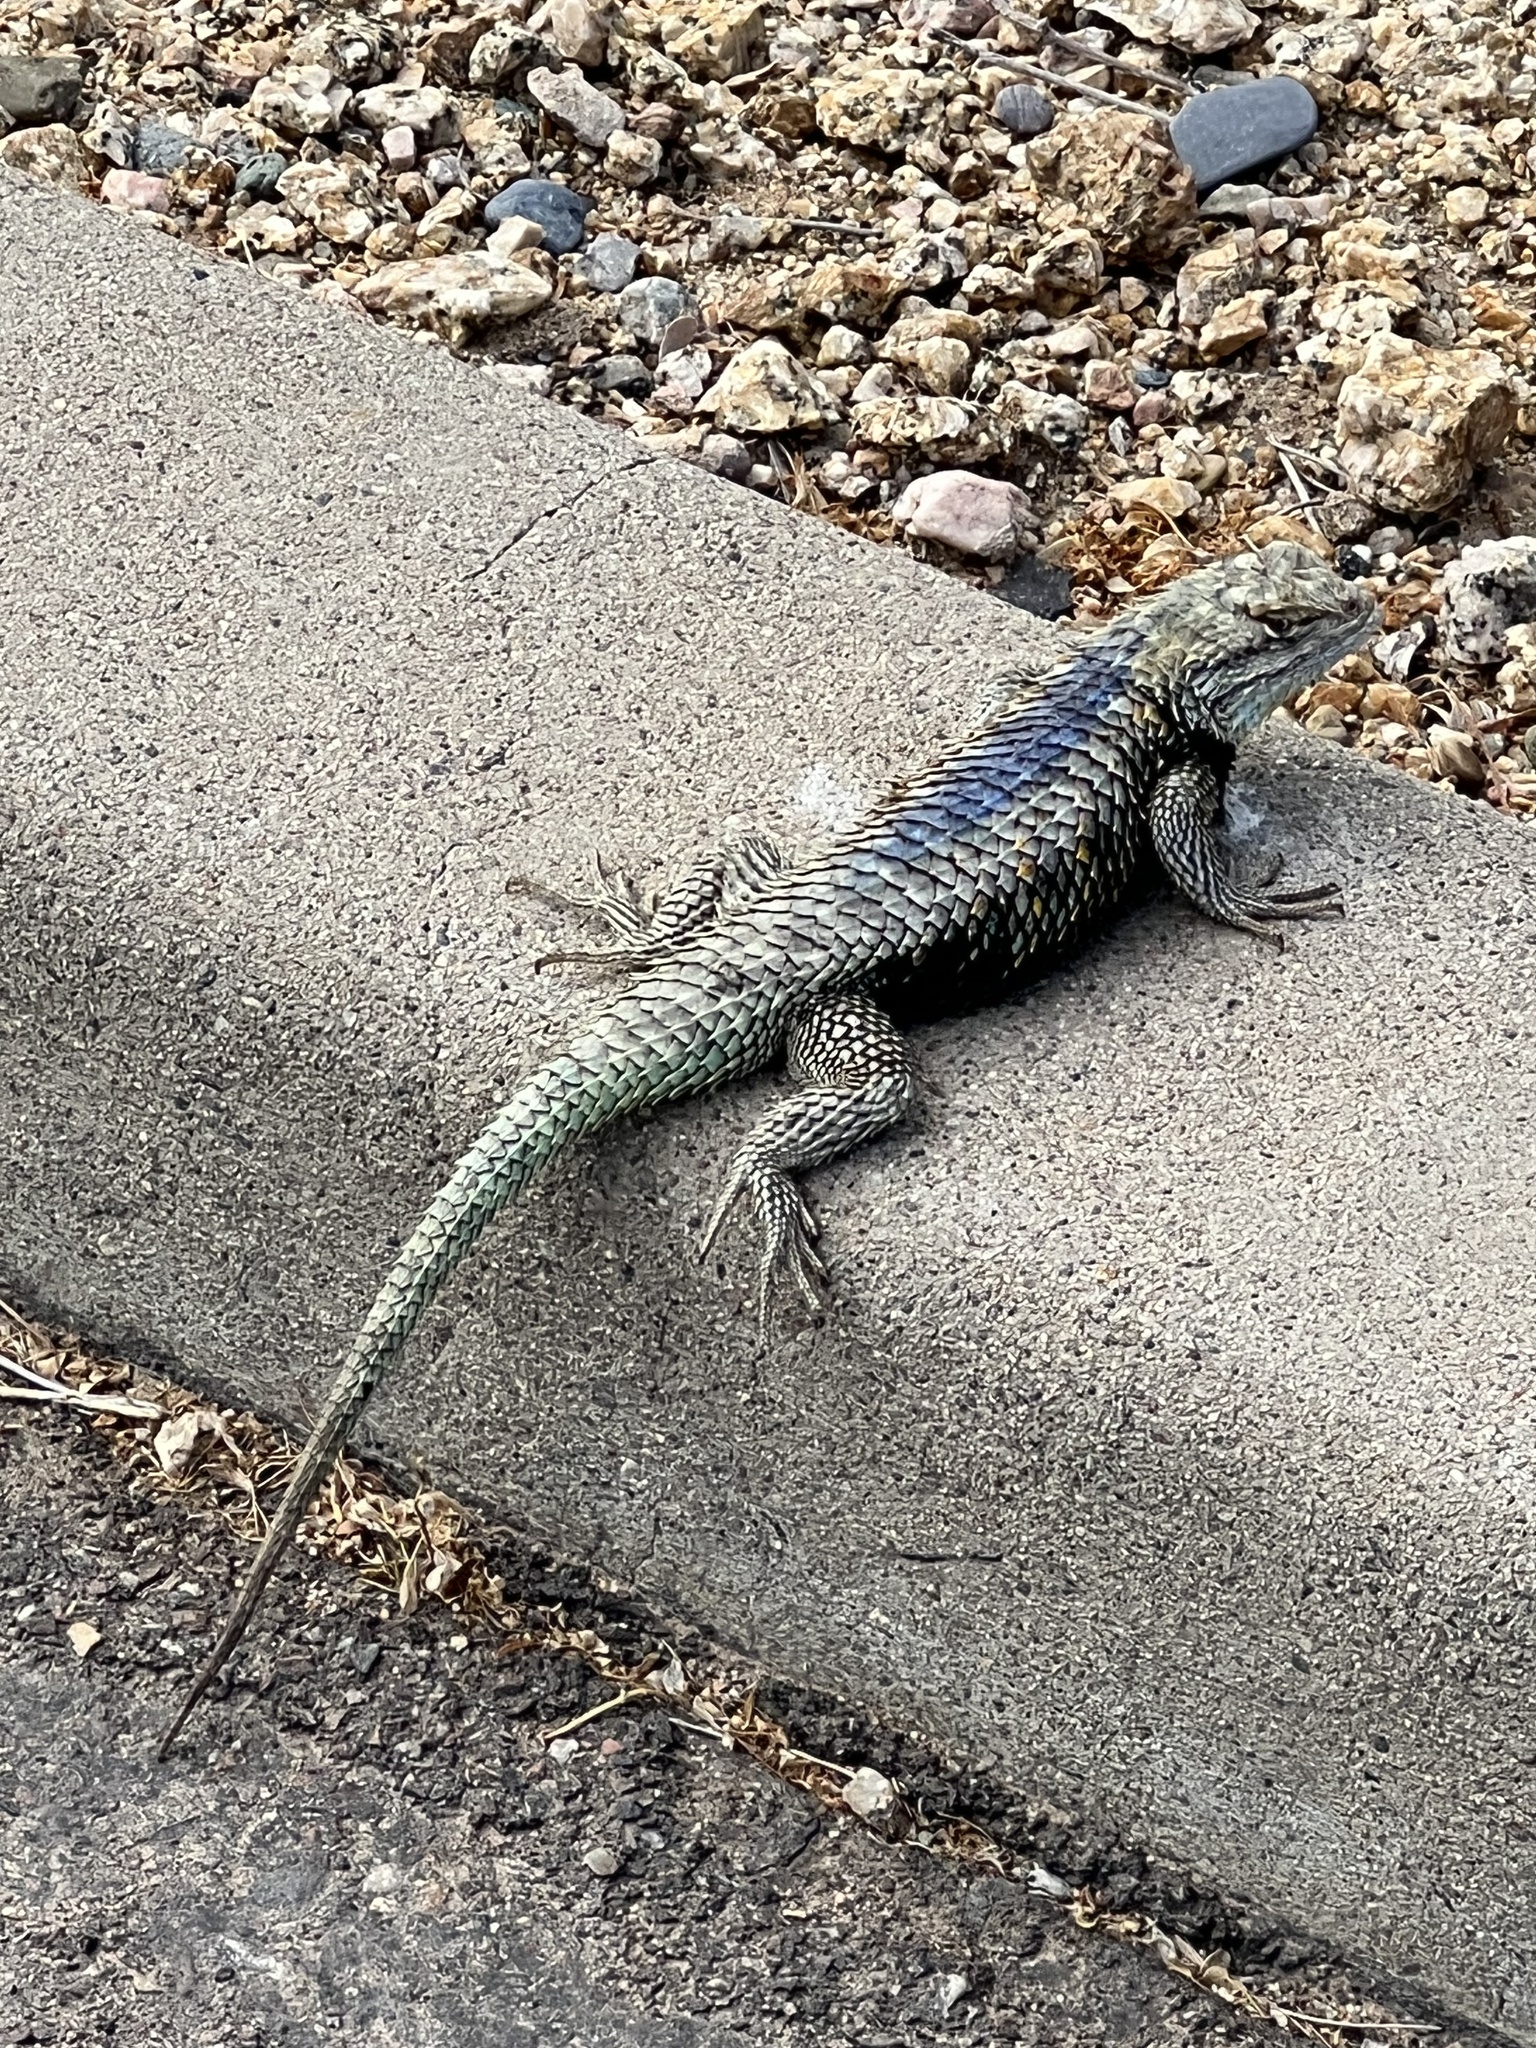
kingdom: Animalia
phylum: Chordata
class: Squamata
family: Phrynosomatidae
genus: Sceloporus
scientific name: Sceloporus magister
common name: Desert spiny lizard
